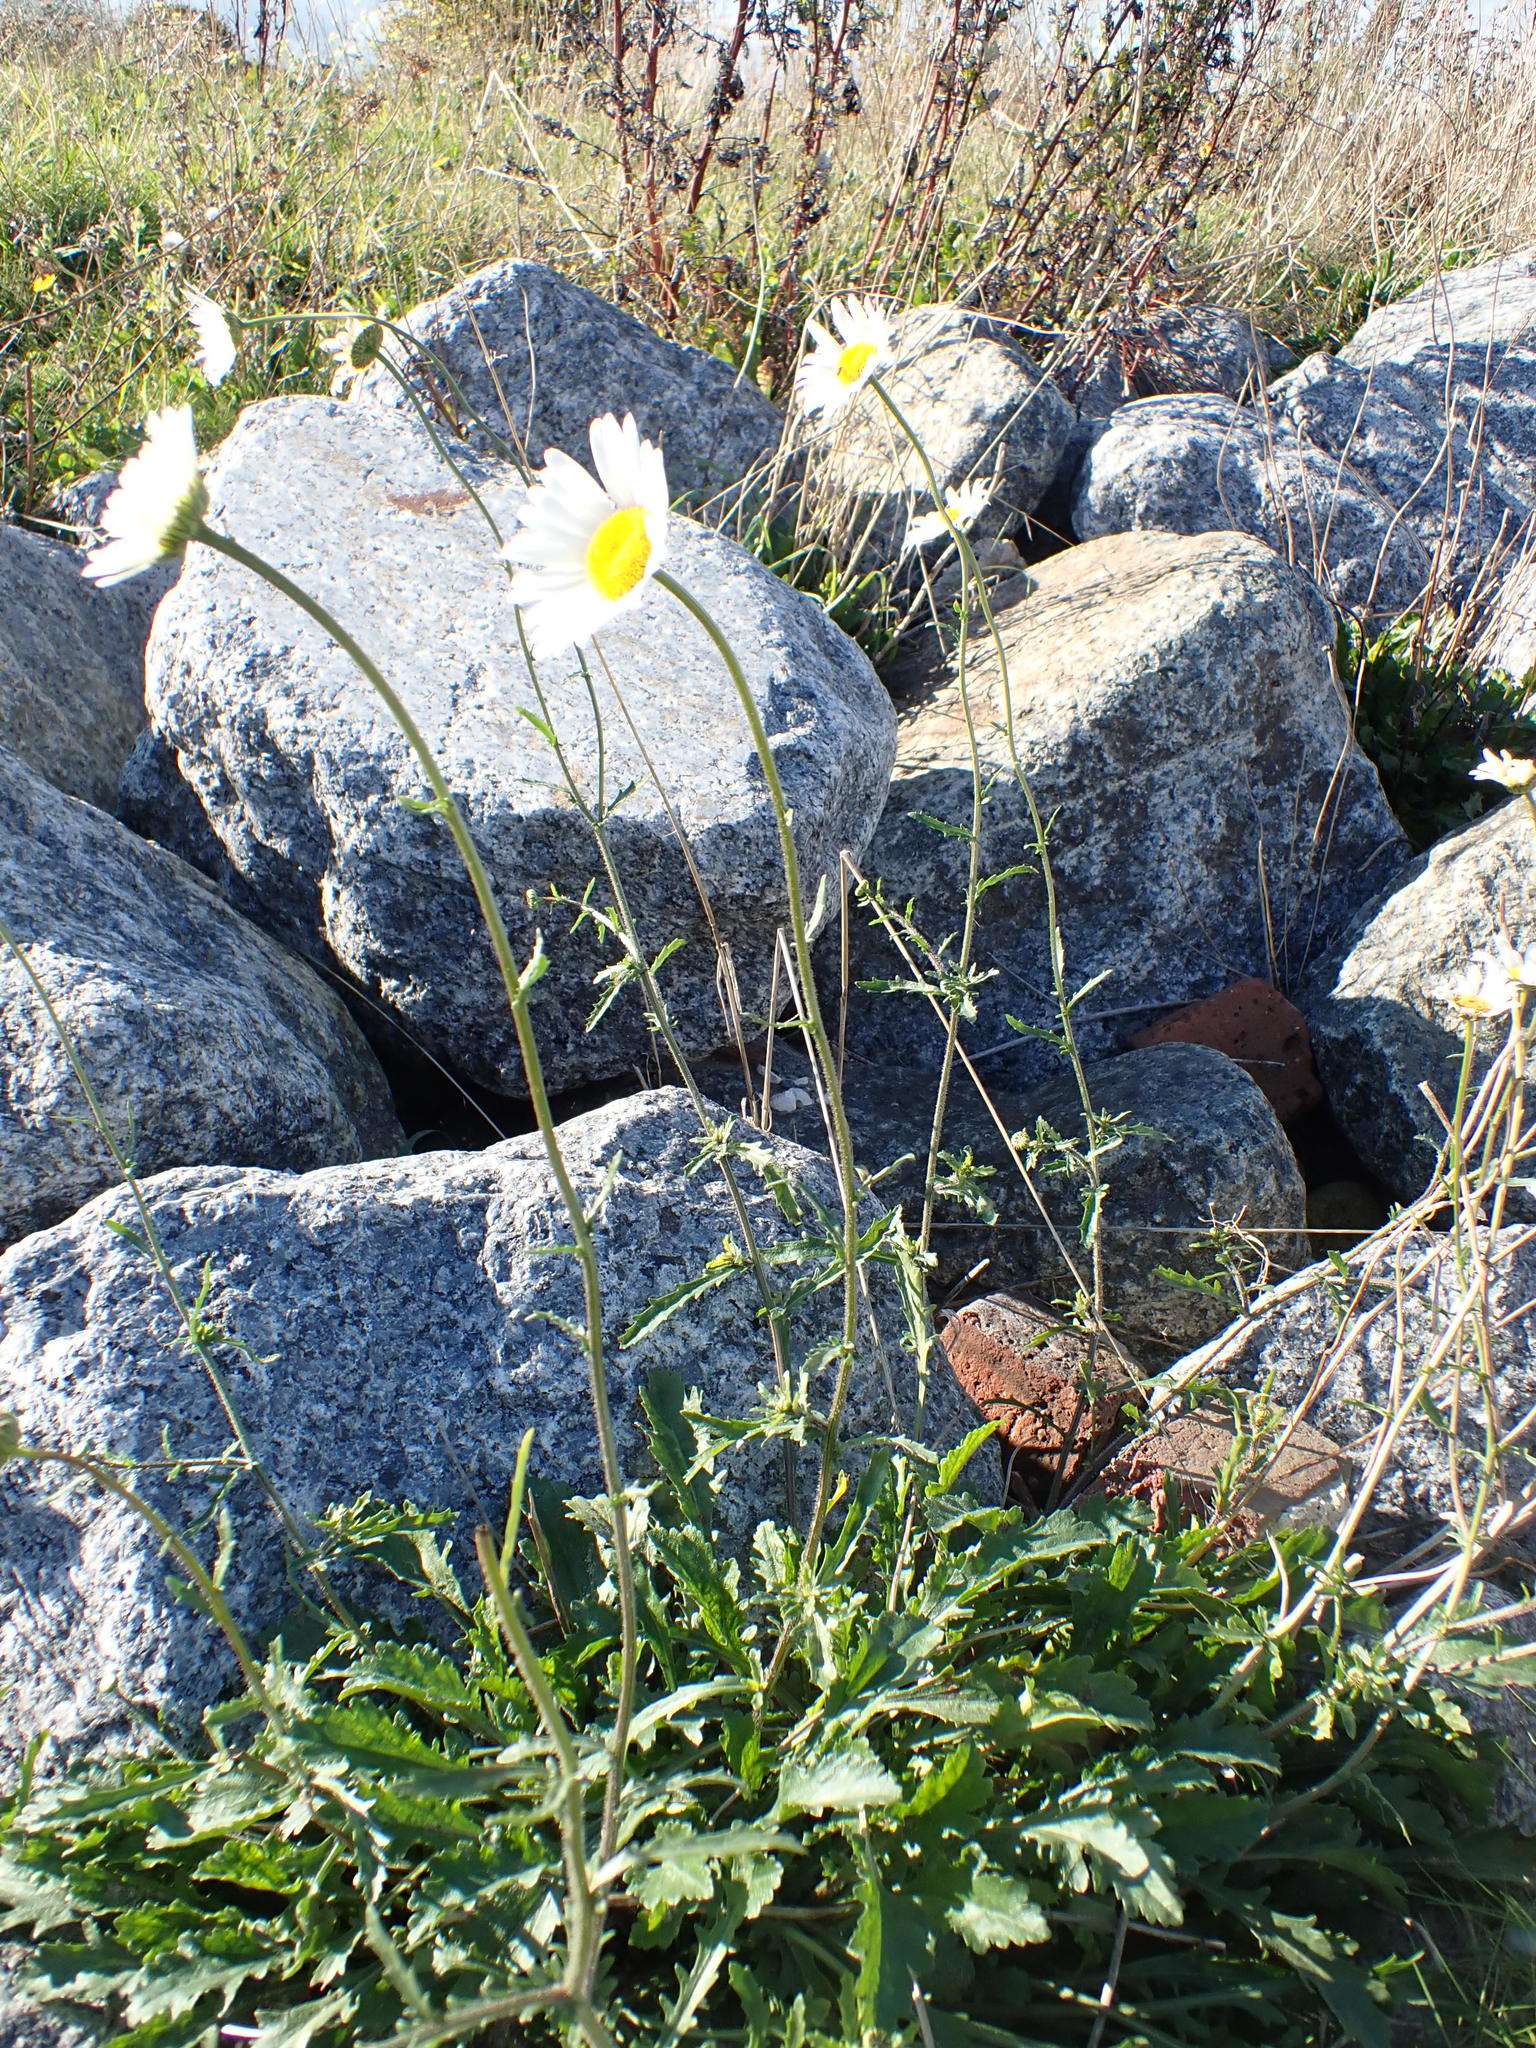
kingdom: Plantae
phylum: Tracheophyta
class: Magnoliopsida
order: Asterales
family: Asteraceae
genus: Leucanthemum
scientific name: Leucanthemum vulgare
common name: Oxeye daisy
